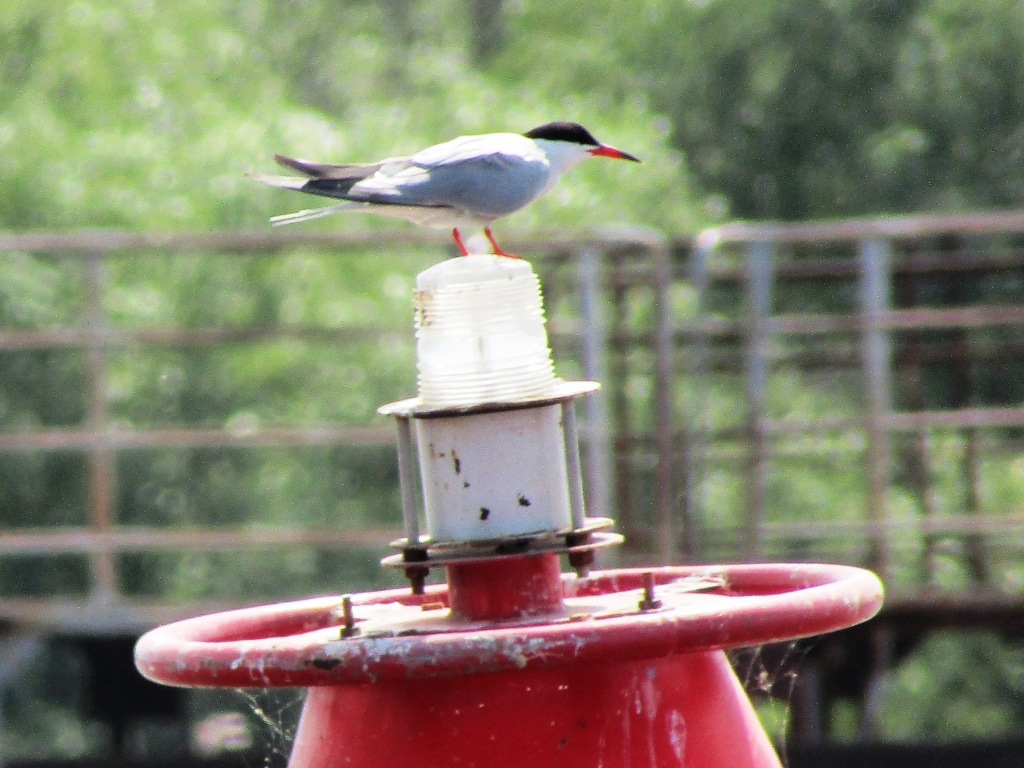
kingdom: Animalia
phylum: Chordata
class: Aves
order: Charadriiformes
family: Laridae
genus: Sterna
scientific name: Sterna hirundo
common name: Common tern
